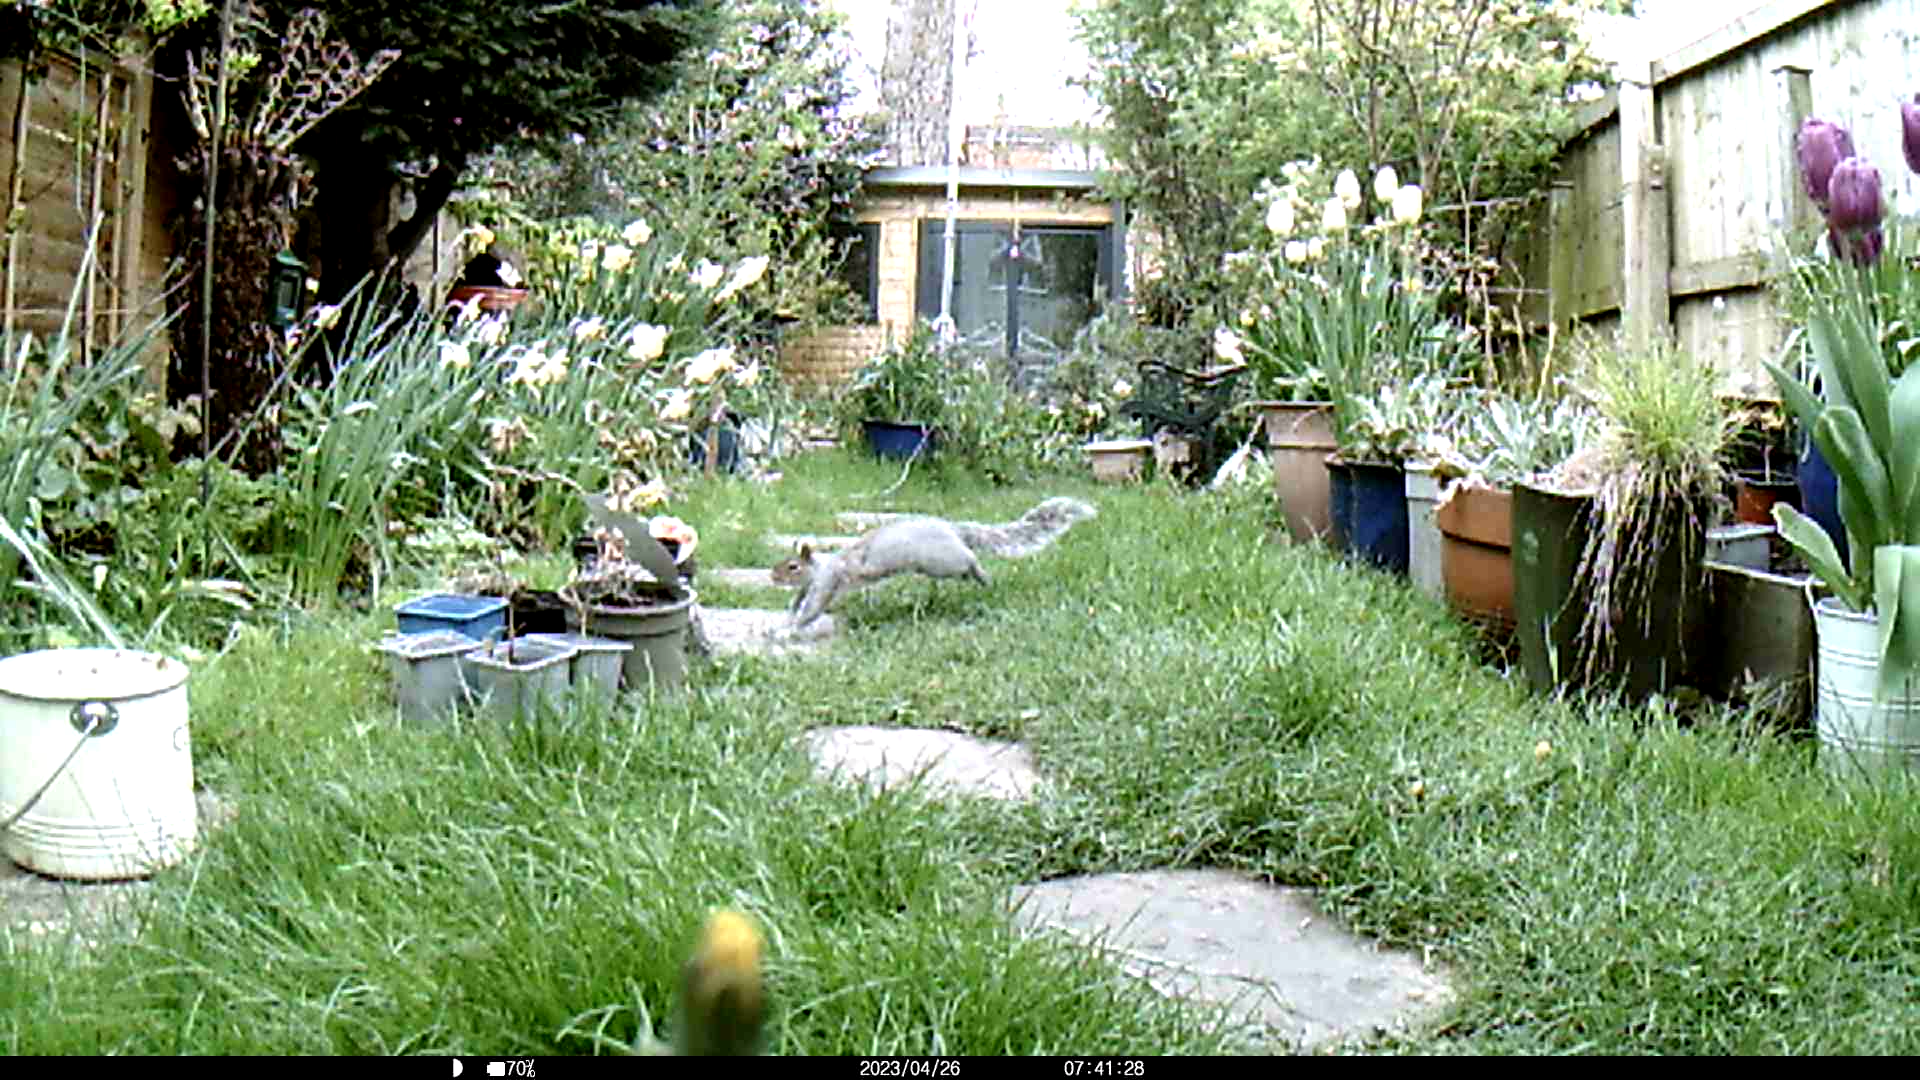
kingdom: Animalia
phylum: Chordata
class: Mammalia
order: Rodentia
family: Sciuridae
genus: Sciurus
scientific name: Sciurus carolinensis
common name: Eastern gray squirrel
